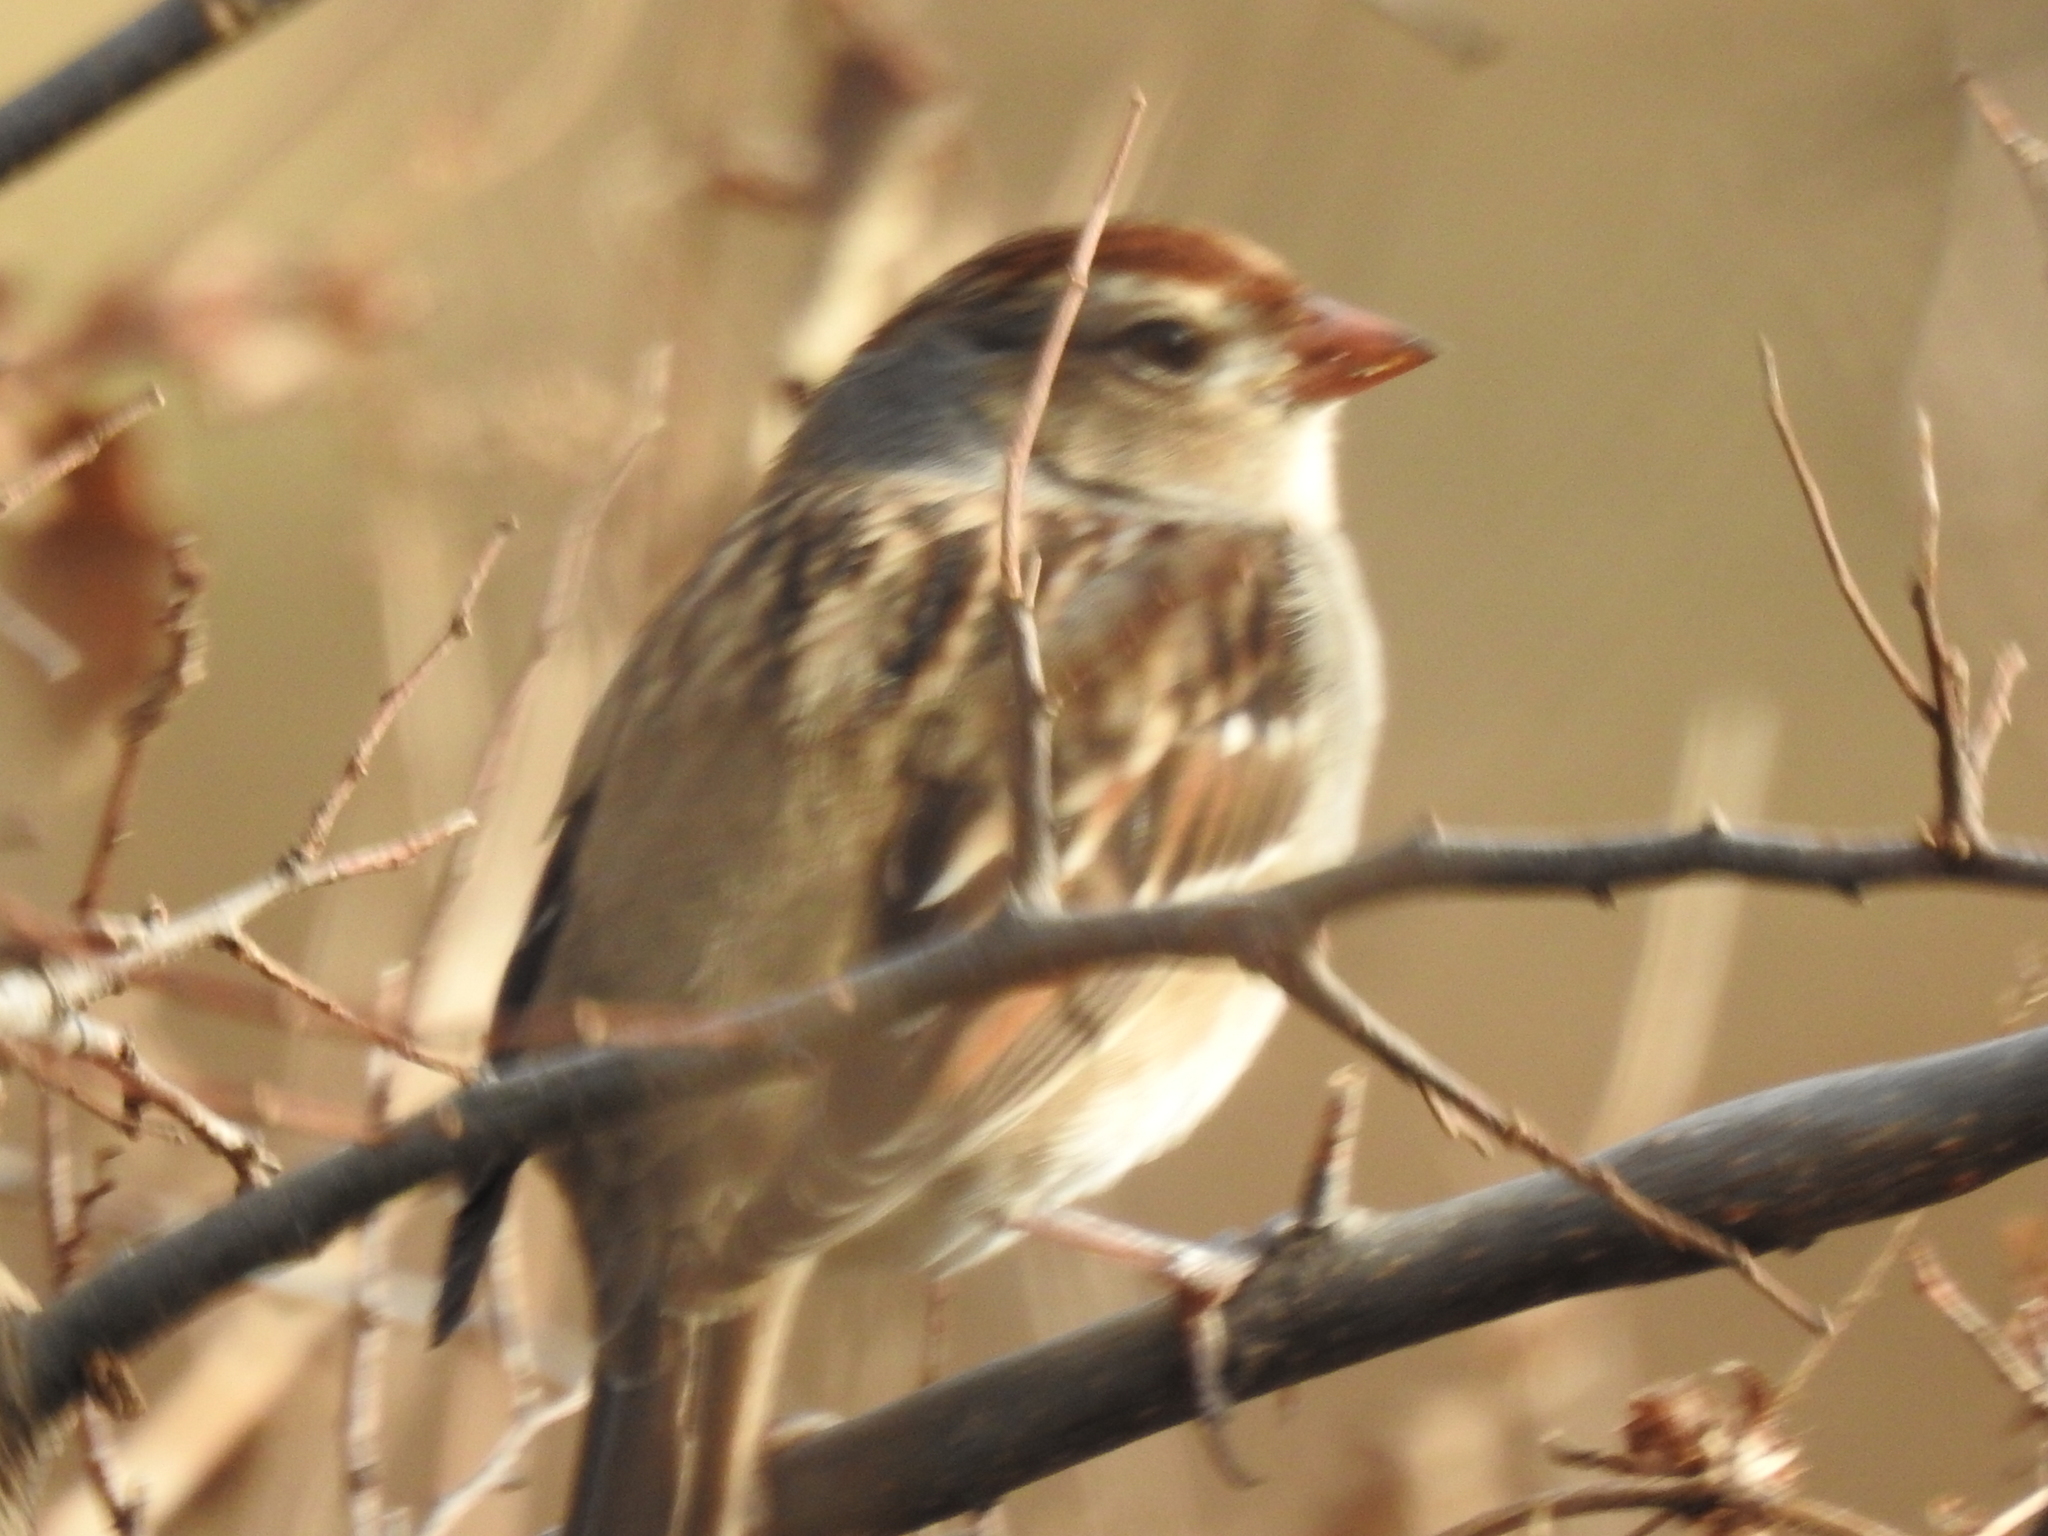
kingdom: Animalia
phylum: Chordata
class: Aves
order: Passeriformes
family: Passerellidae
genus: Zonotrichia
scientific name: Zonotrichia leucophrys
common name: White-crowned sparrow
